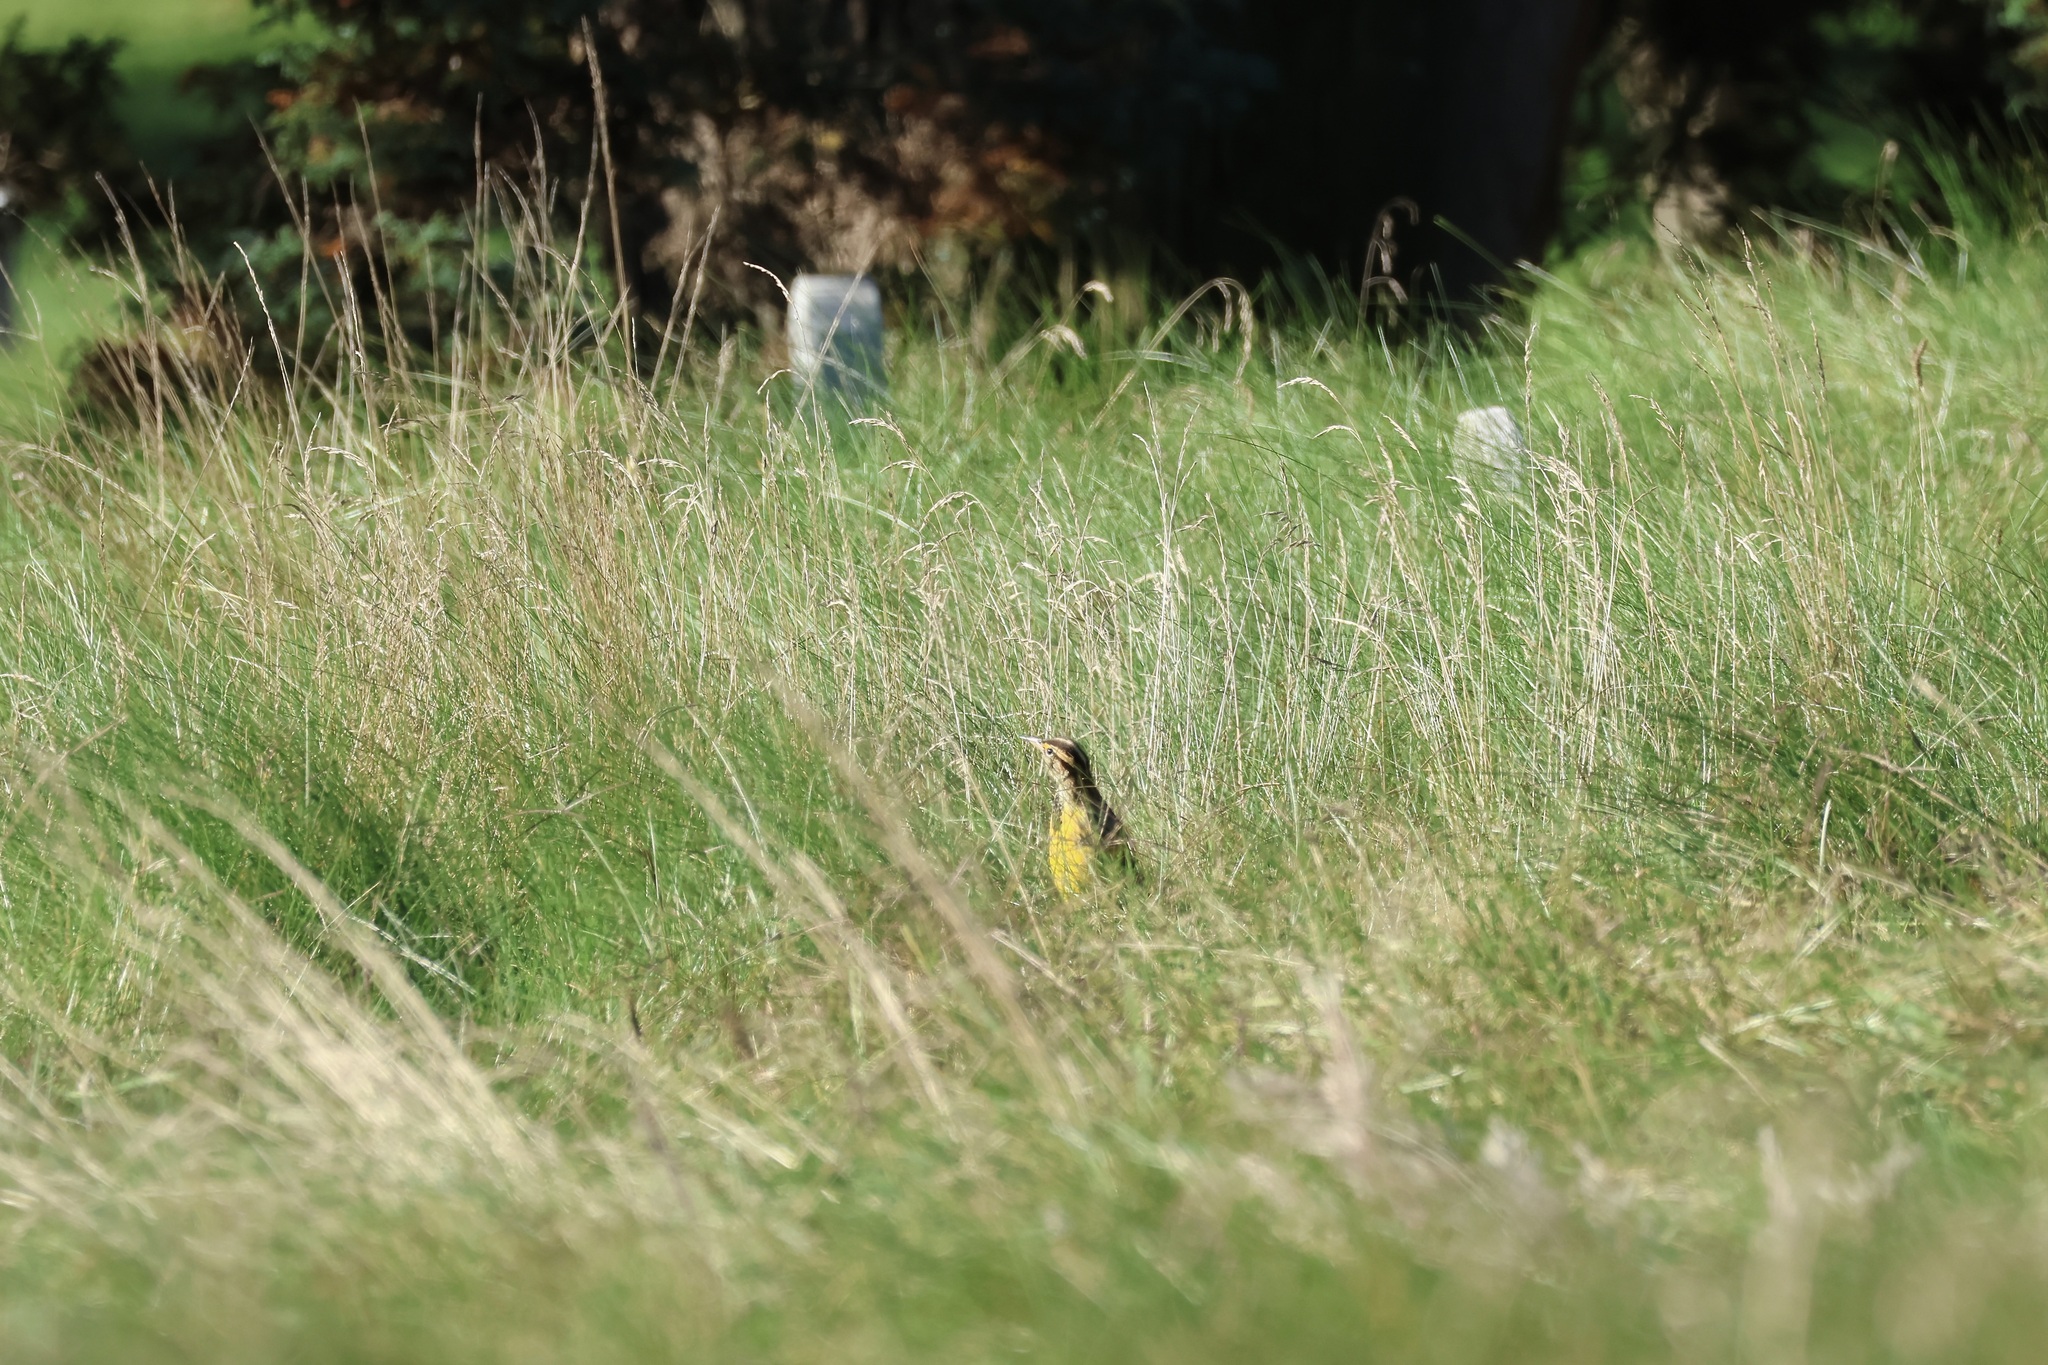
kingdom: Animalia
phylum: Chordata
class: Aves
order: Passeriformes
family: Icteridae
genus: Sturnella
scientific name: Sturnella magna
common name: Eastern meadowlark
